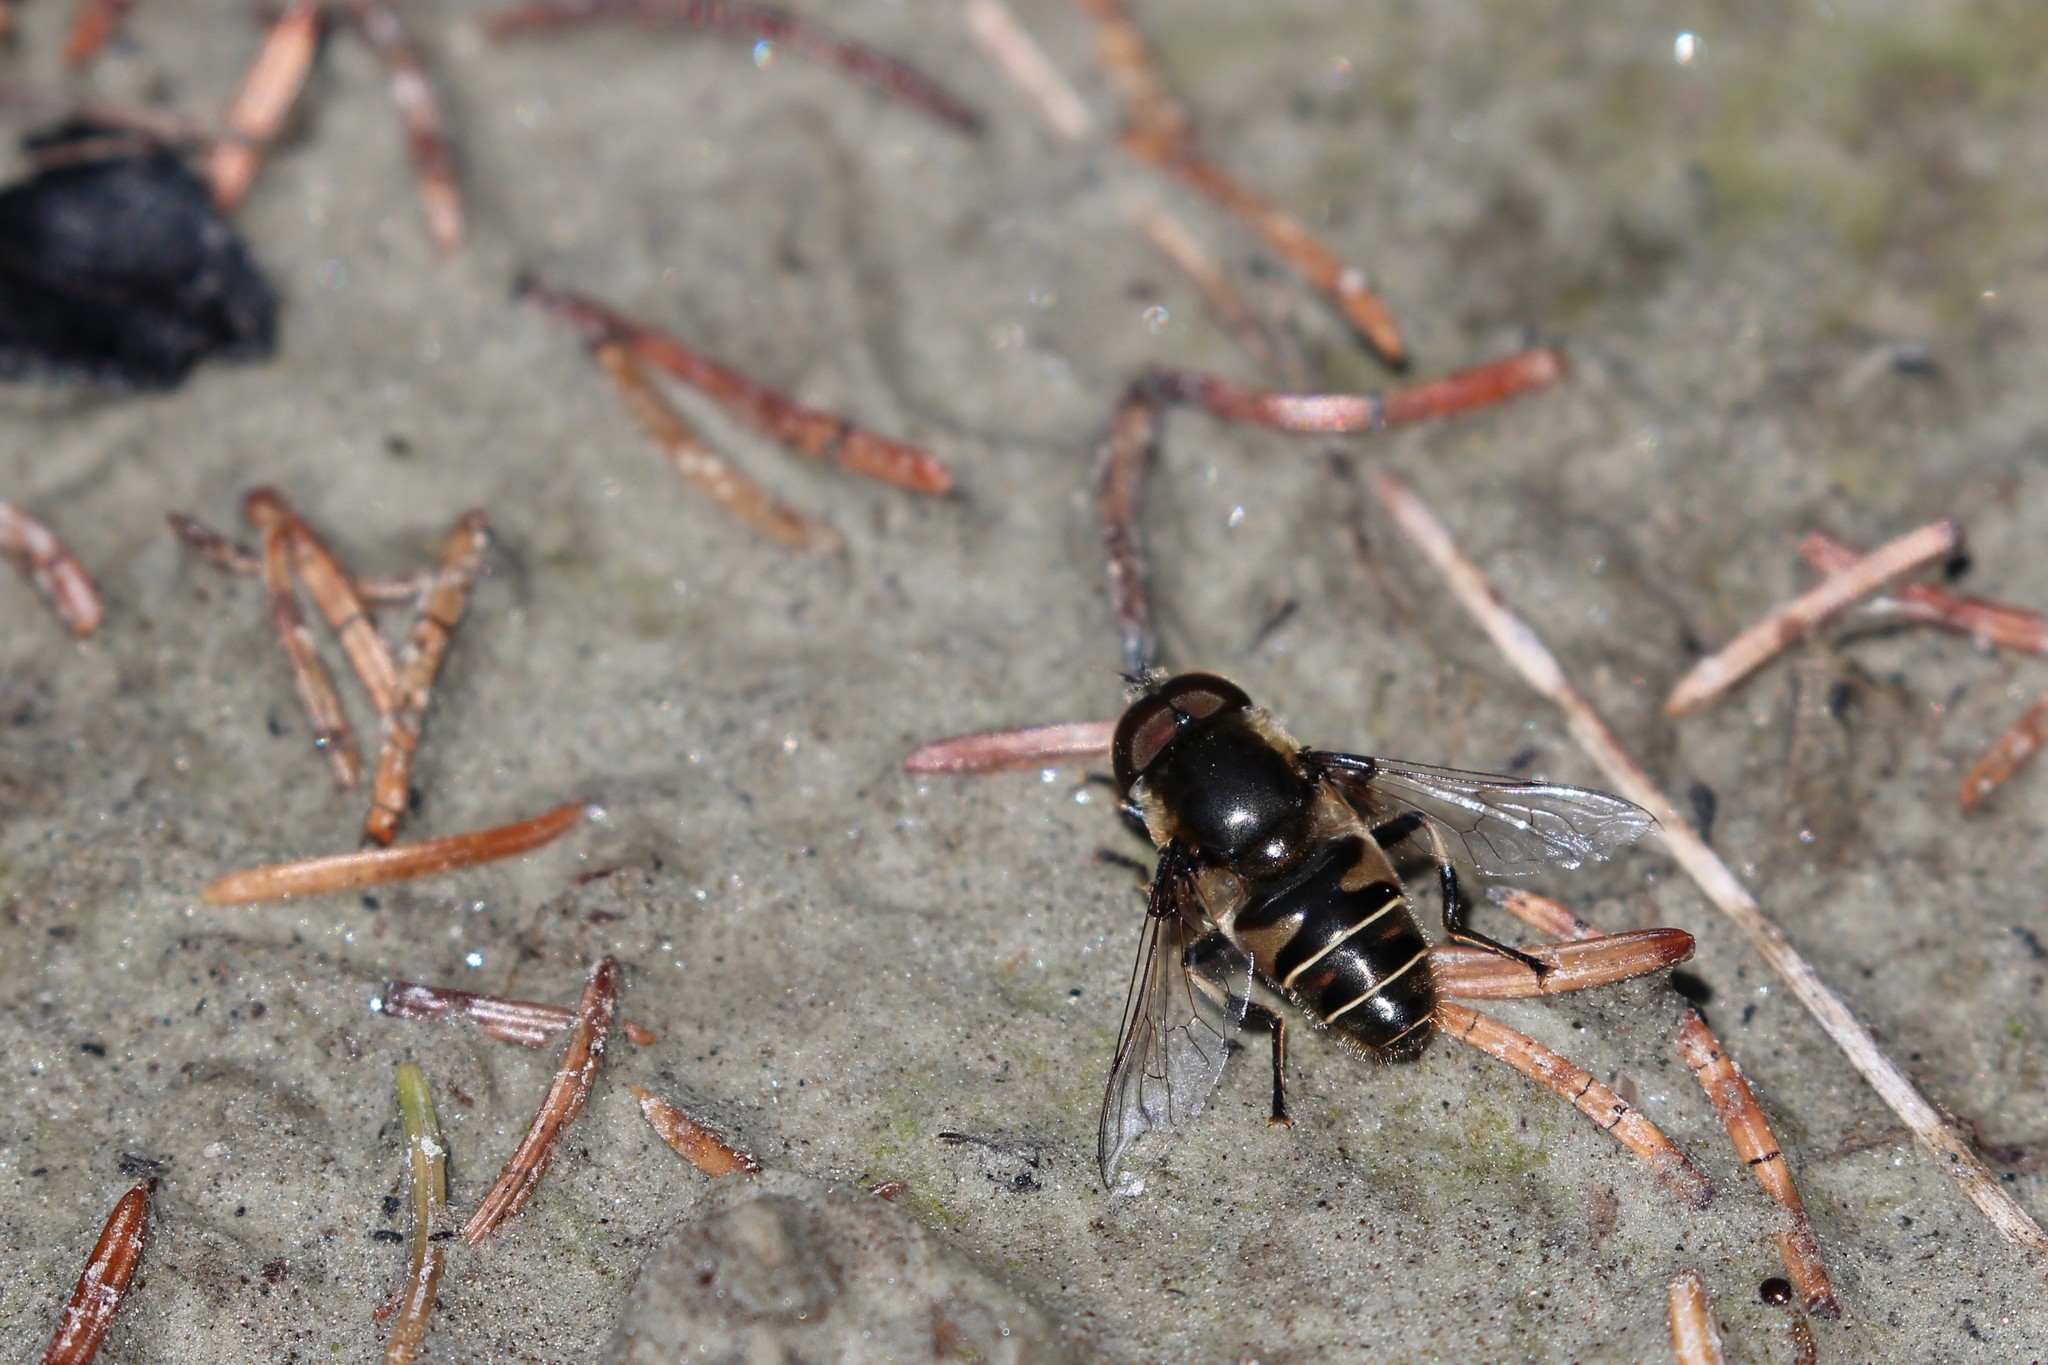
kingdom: Animalia
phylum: Arthropoda
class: Insecta
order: Diptera
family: Syrphidae
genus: Eristalis
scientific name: Eristalis dimidiata
